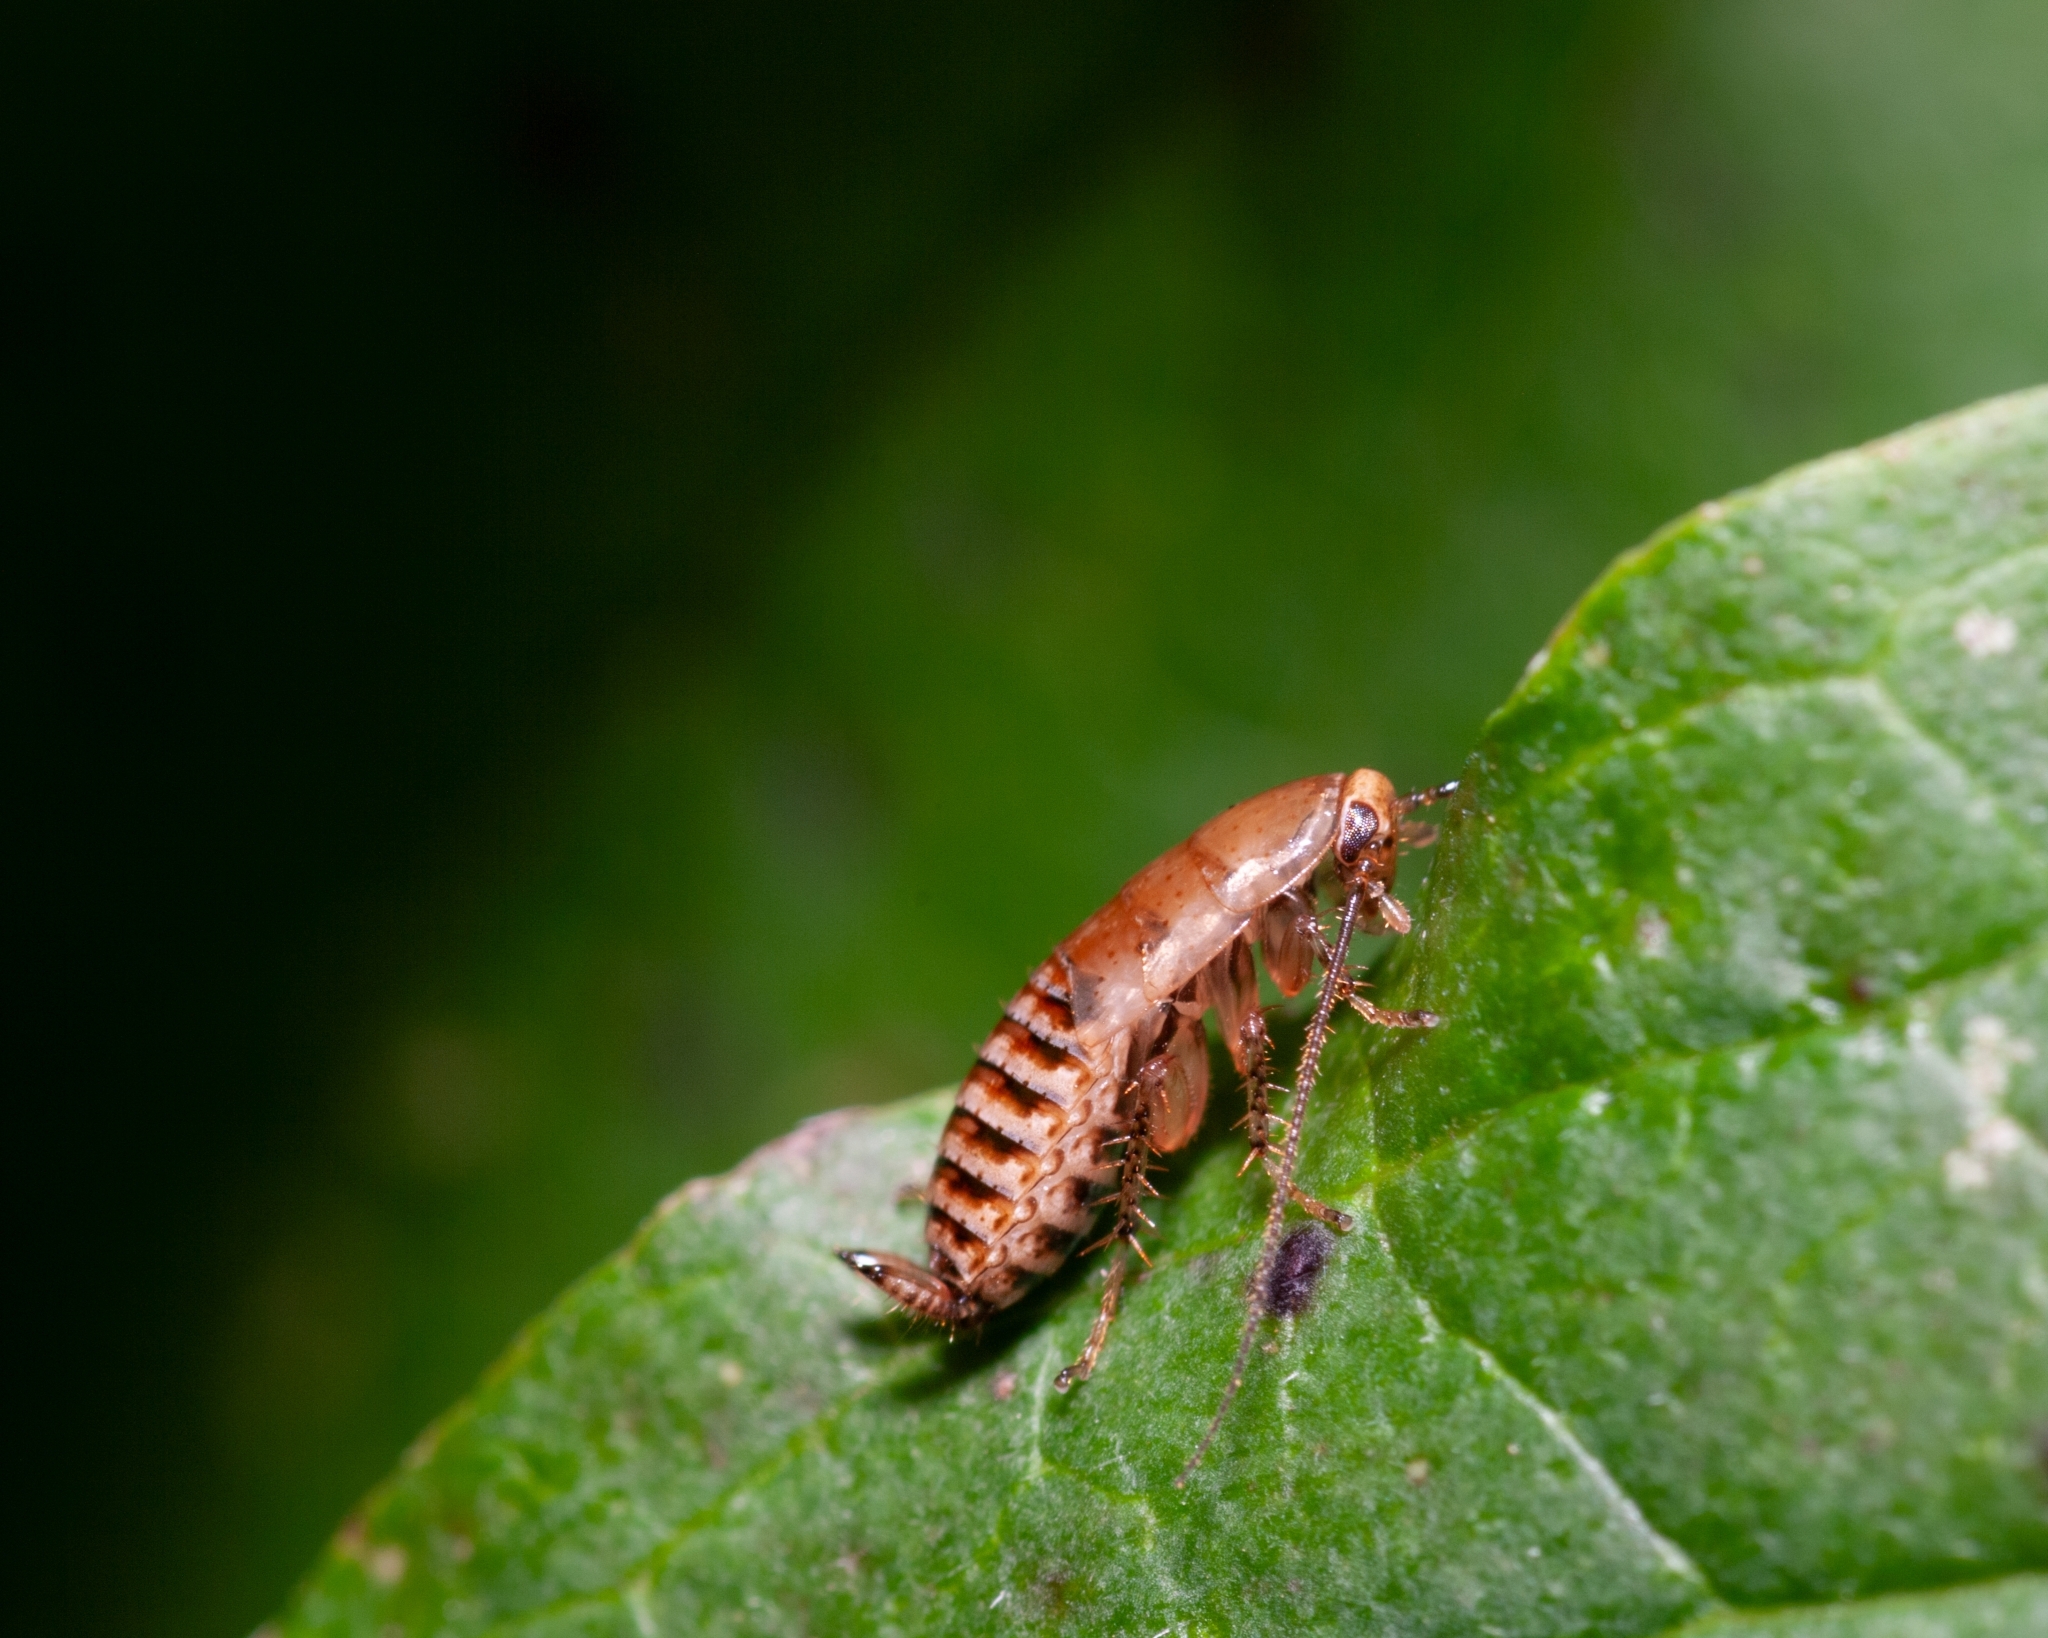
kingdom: Animalia
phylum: Arthropoda
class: Insecta
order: Blattodea
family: Ectobiidae
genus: Ectobius
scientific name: Ectobius vittiventris
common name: Garden cockroach
